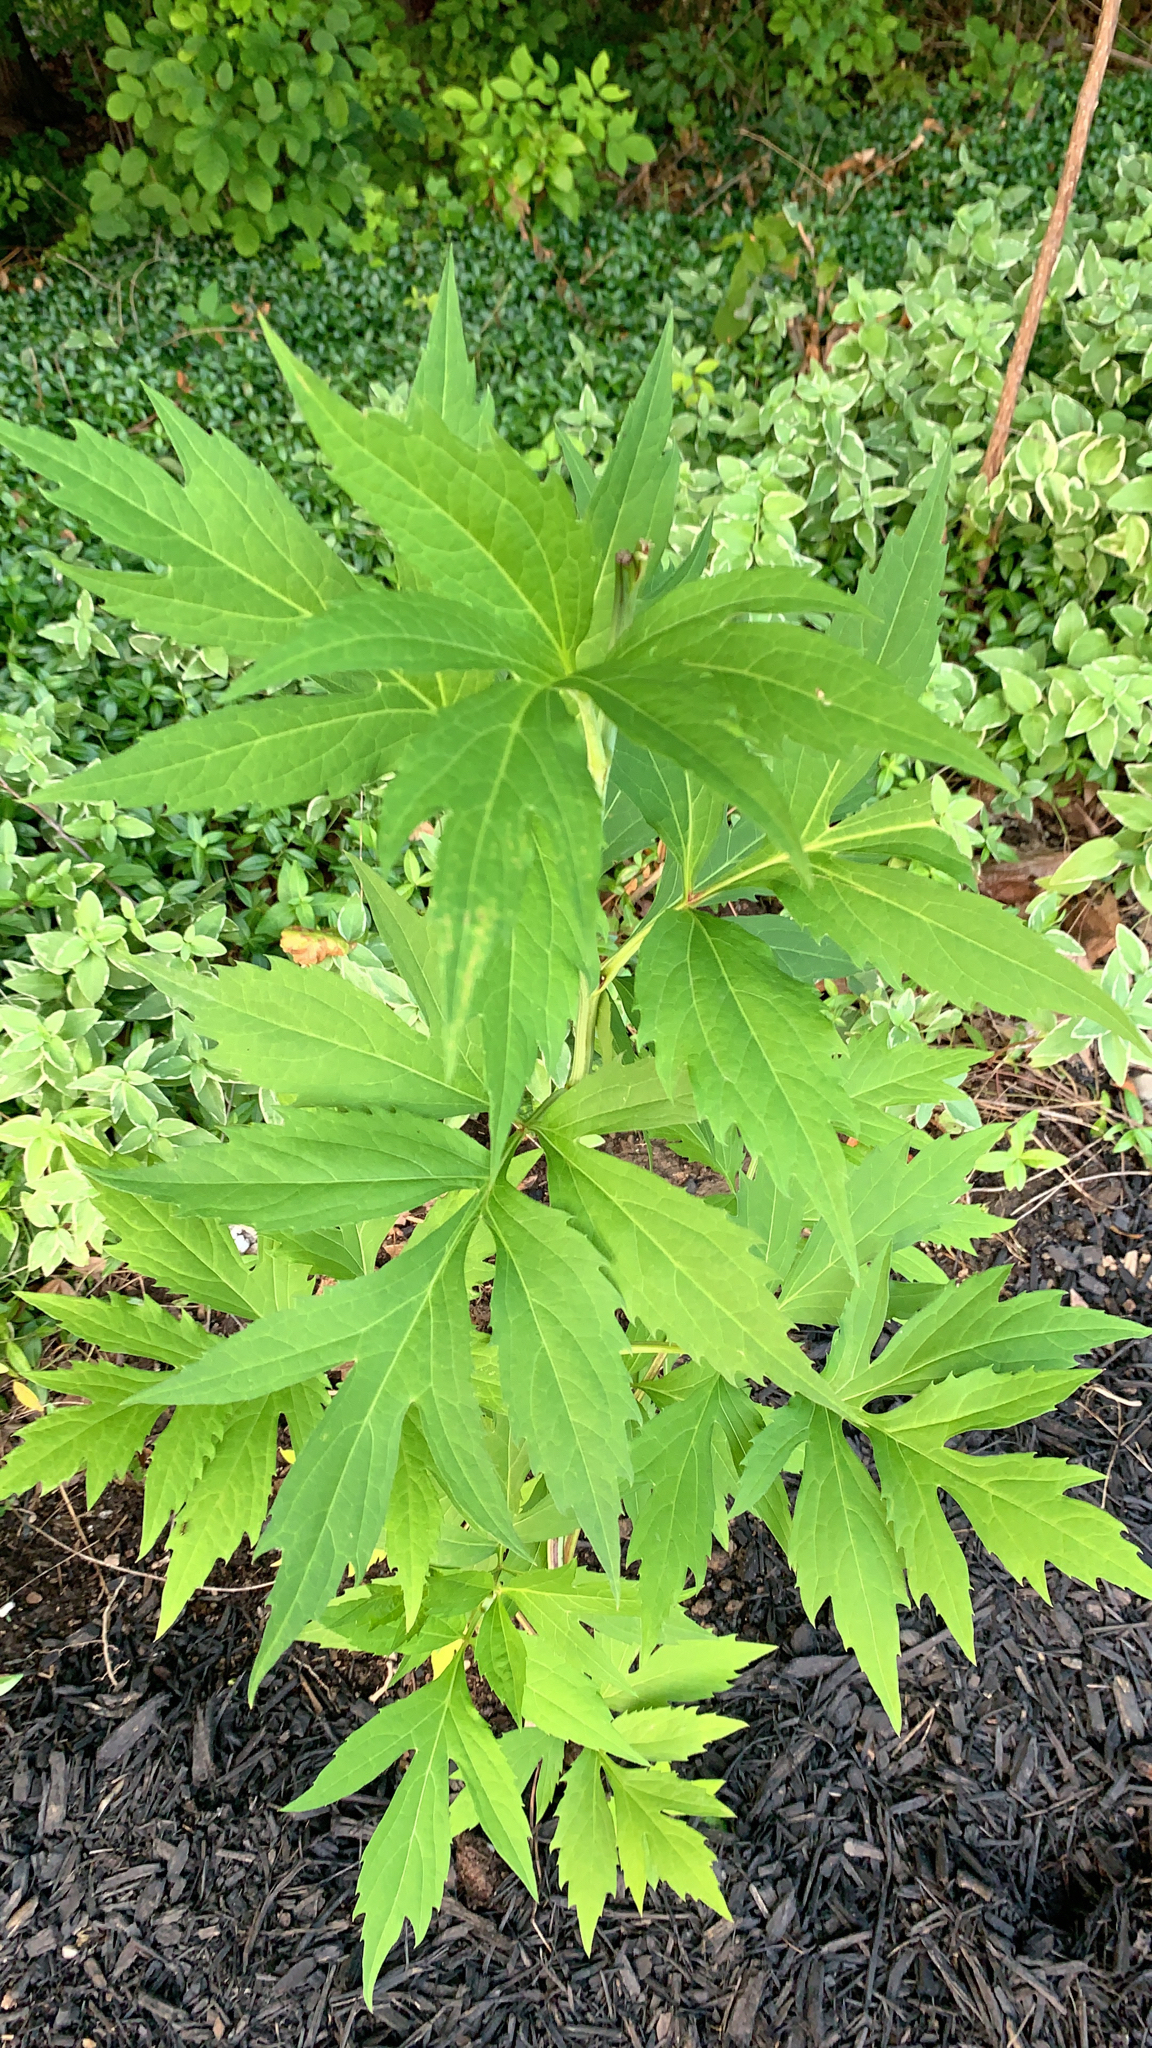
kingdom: Plantae
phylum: Tracheophyta
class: Magnoliopsida
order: Asterales
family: Asteraceae
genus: Rudbeckia
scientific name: Rudbeckia laciniata
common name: Coneflower
